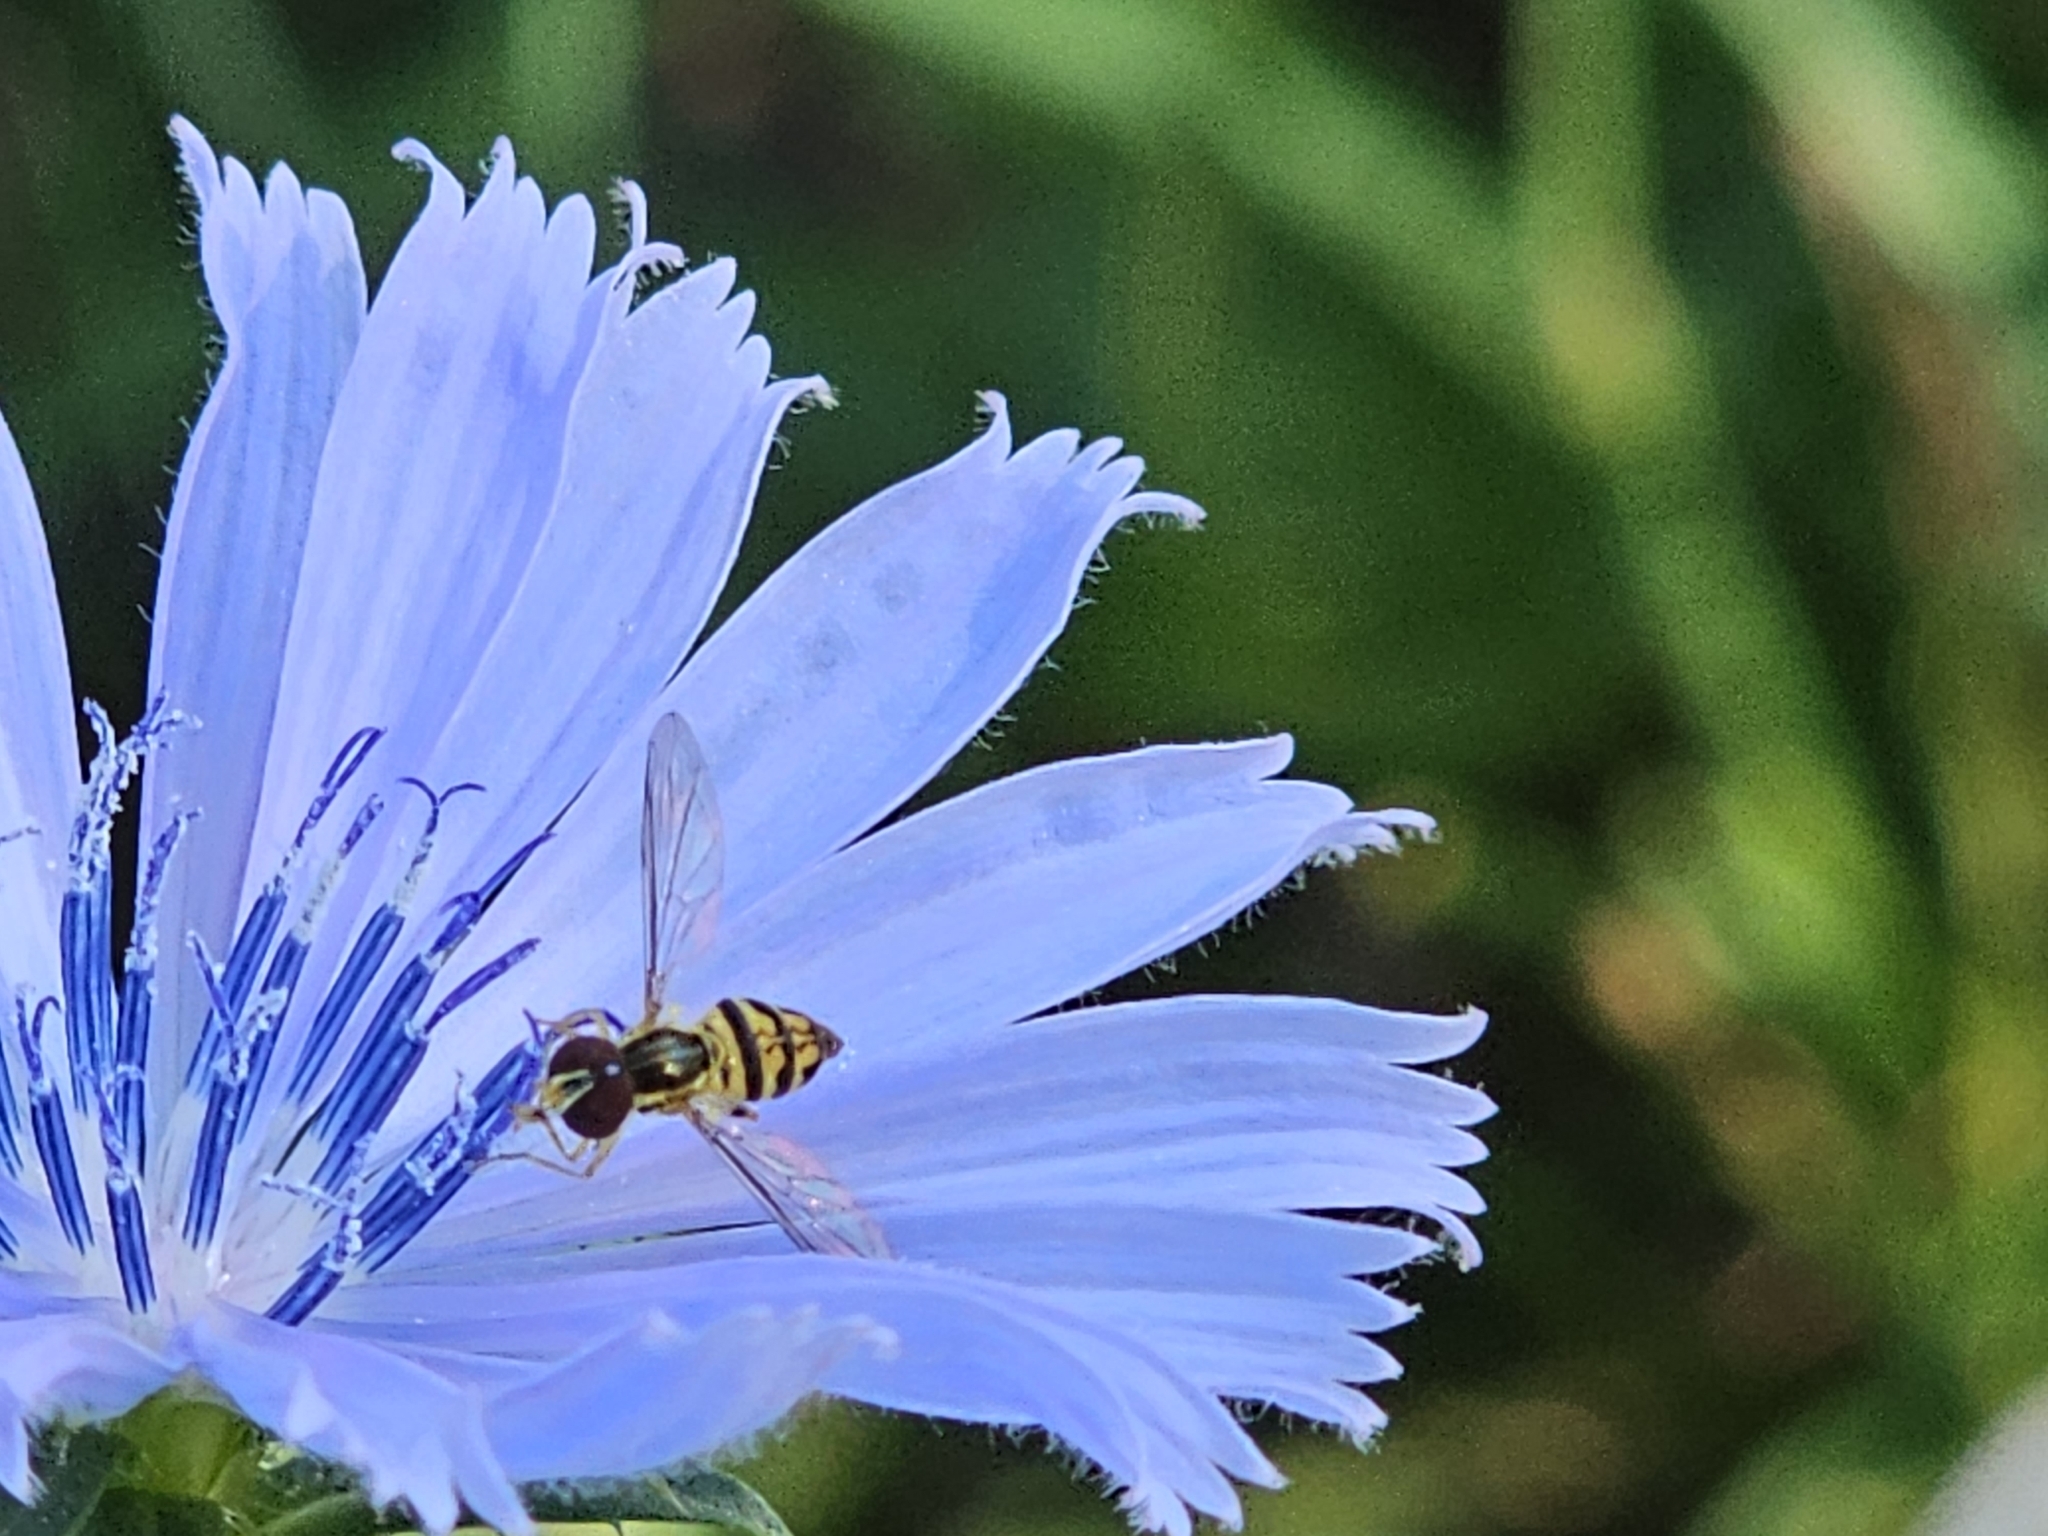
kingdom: Animalia
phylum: Arthropoda
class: Insecta
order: Diptera
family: Syrphidae
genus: Toxomerus
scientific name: Toxomerus geminatus
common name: Eastern calligrapher
